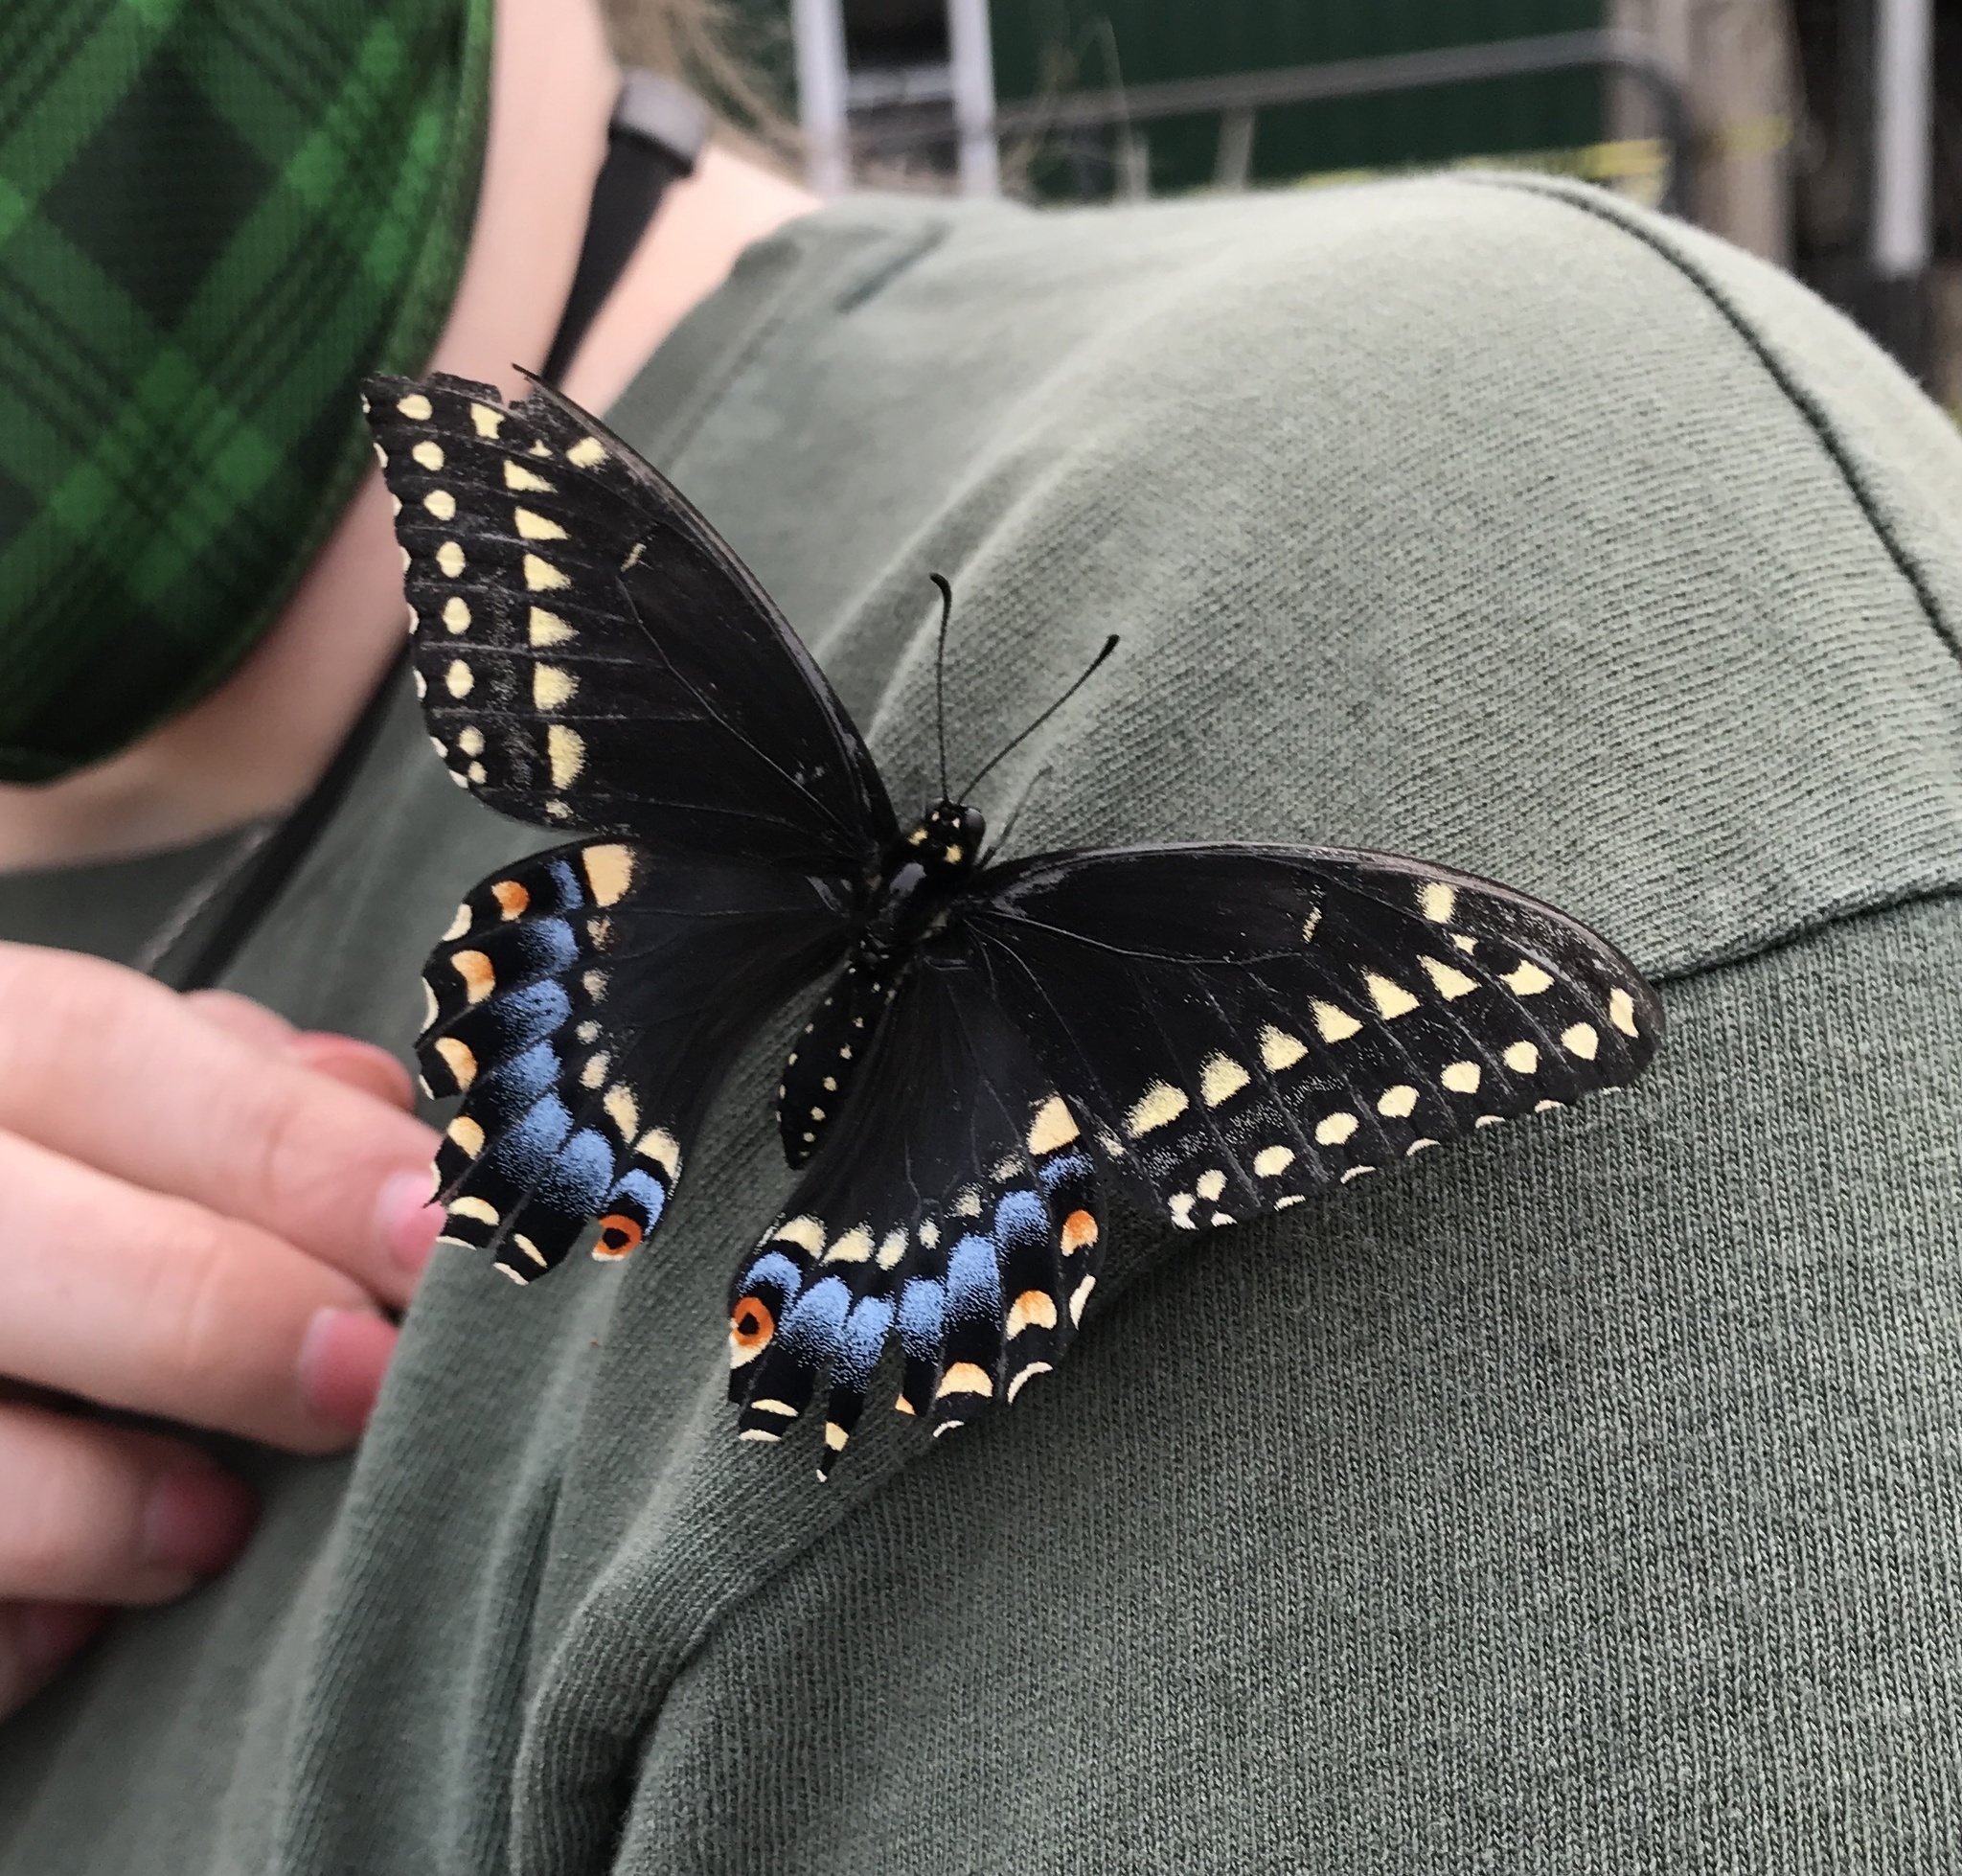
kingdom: Animalia
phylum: Arthropoda
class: Insecta
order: Lepidoptera
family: Papilionidae
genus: Papilio
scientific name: Papilio polyxenes
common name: Black swallowtail
